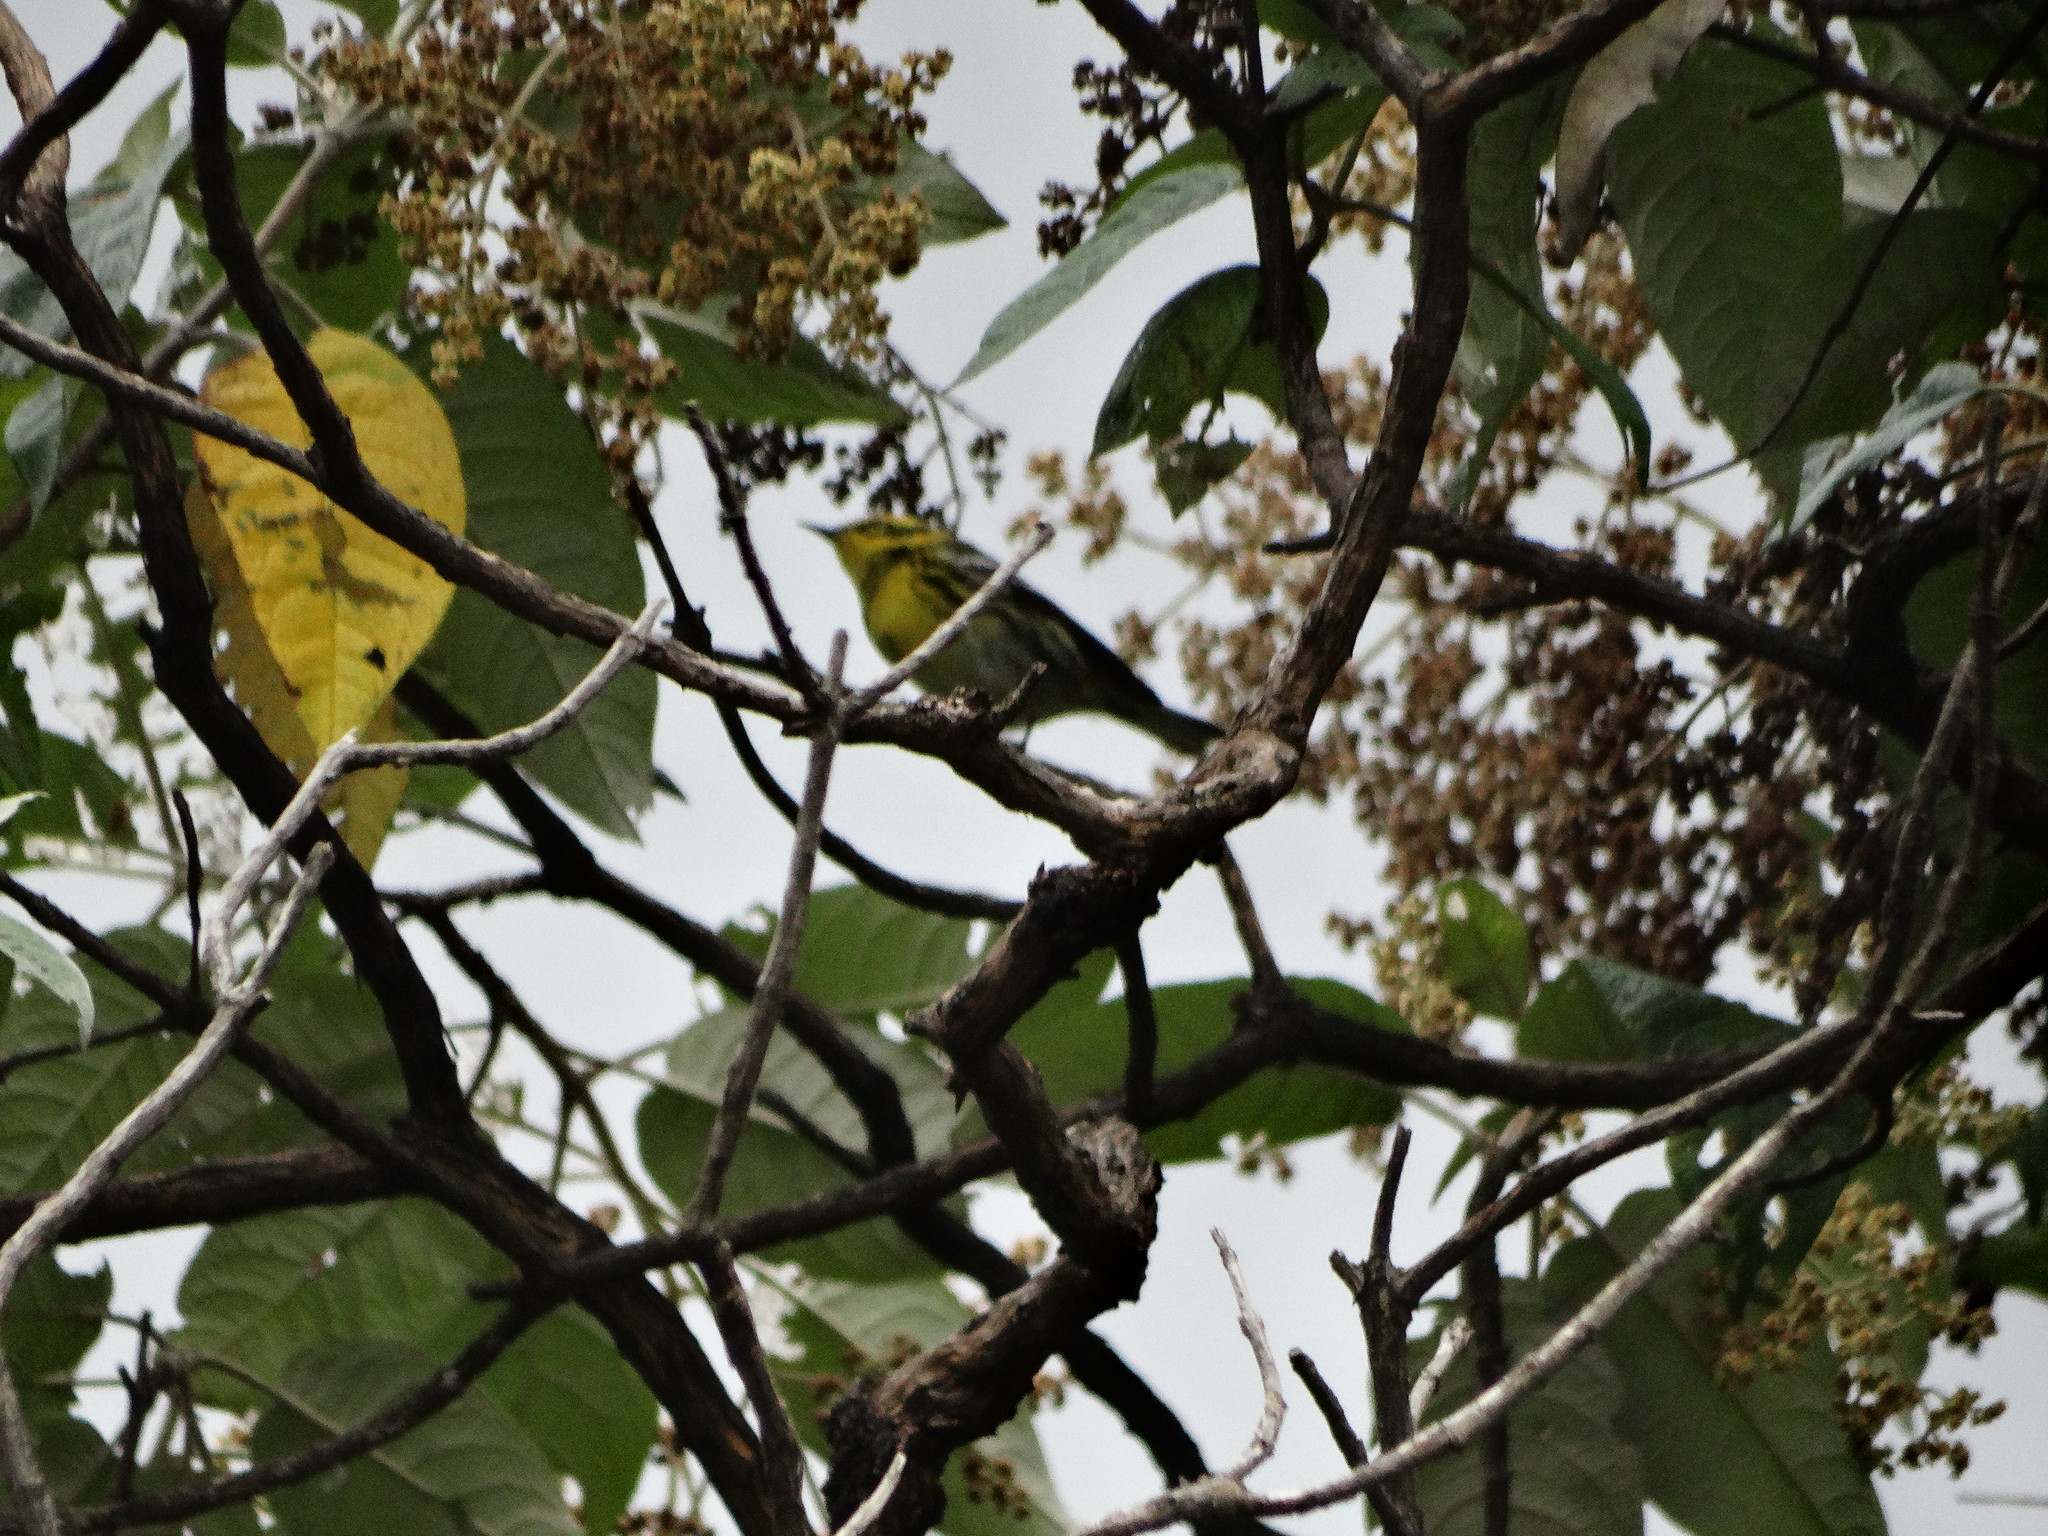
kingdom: Animalia
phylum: Chordata
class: Aves
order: Passeriformes
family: Parulidae
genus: Setophaga
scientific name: Setophaga townsendi
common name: Townsend's warbler
